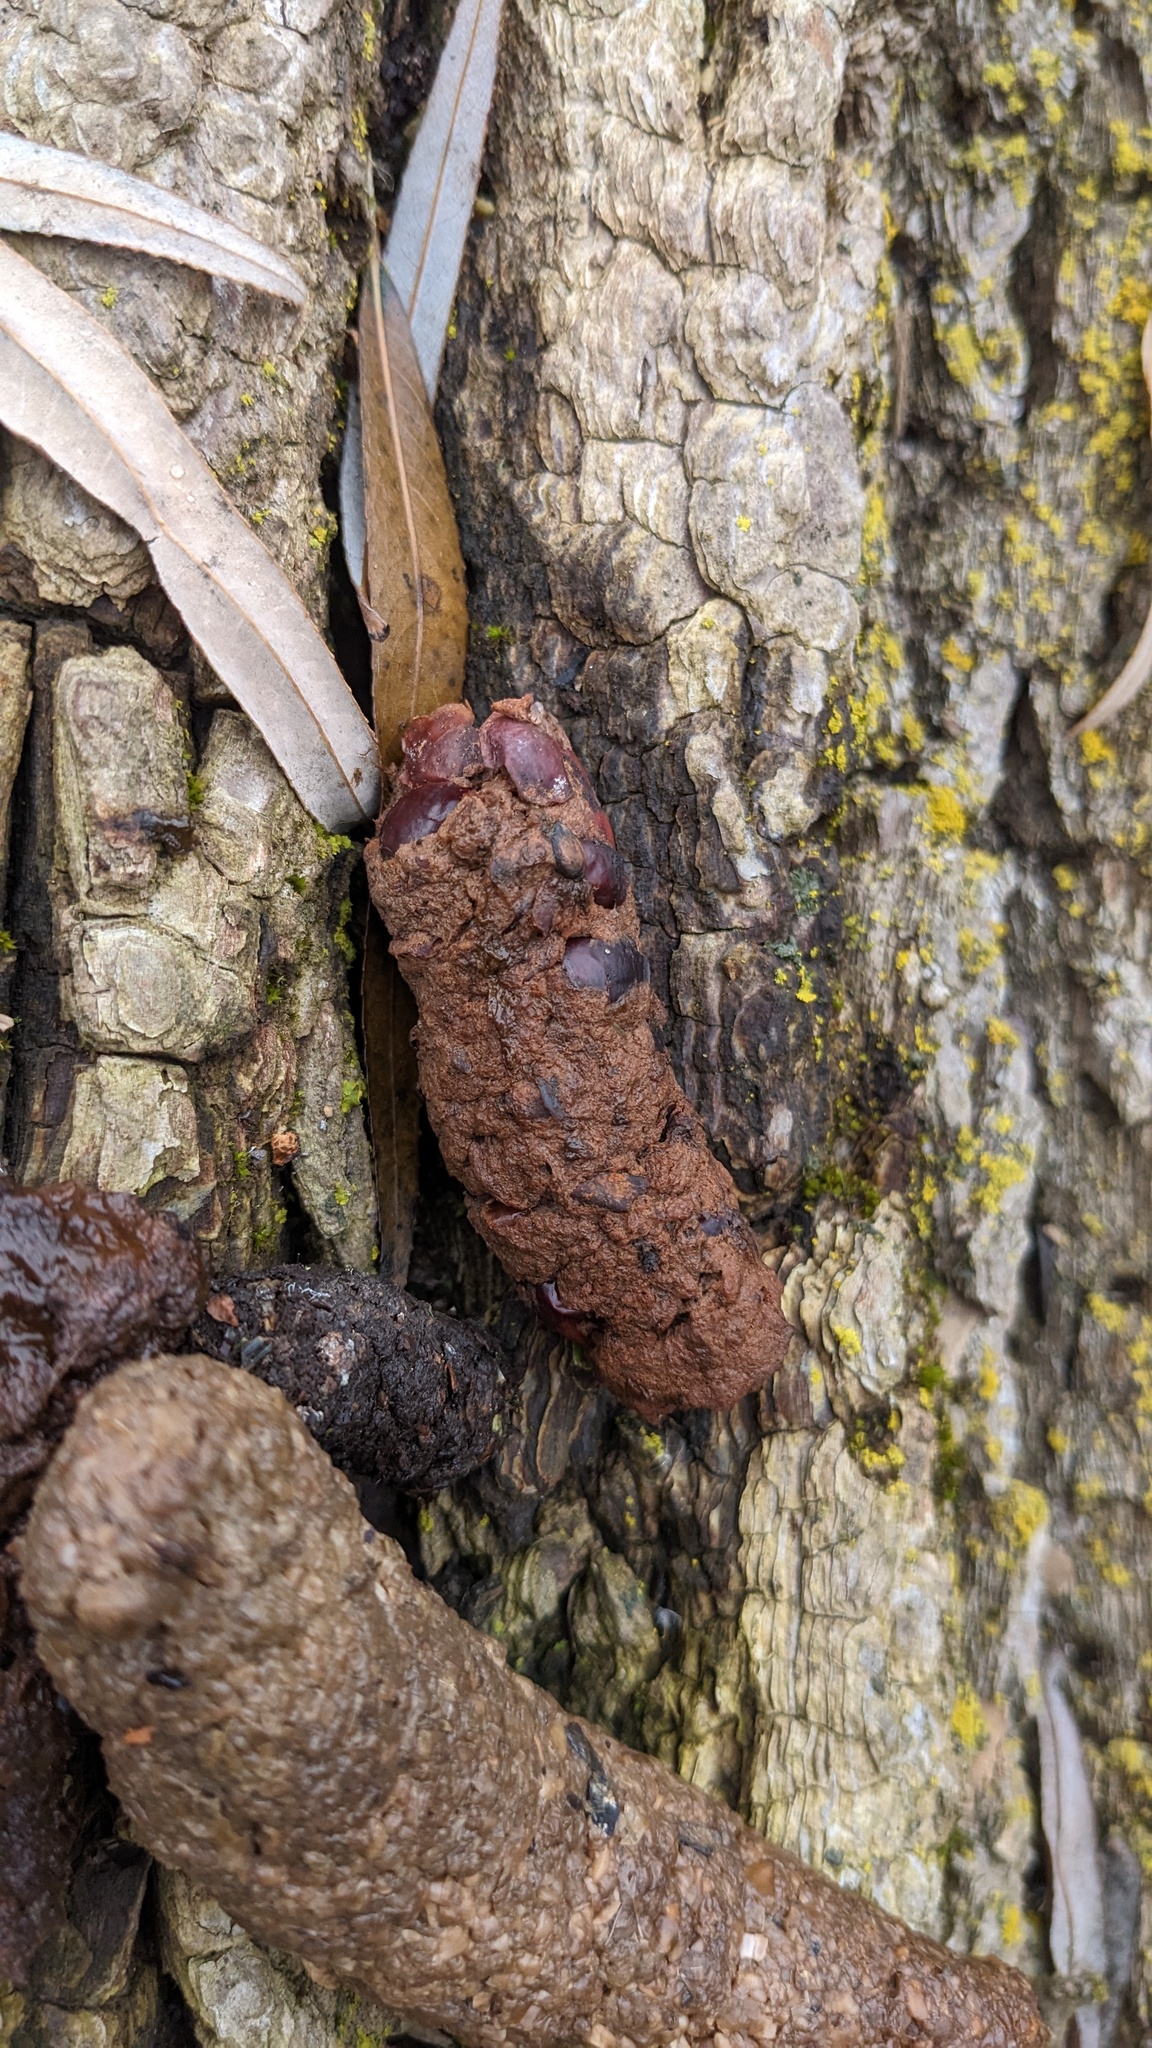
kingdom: Animalia
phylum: Chordata
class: Mammalia
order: Carnivora
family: Procyonidae
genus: Procyon
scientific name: Procyon lotor
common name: Raccoon
